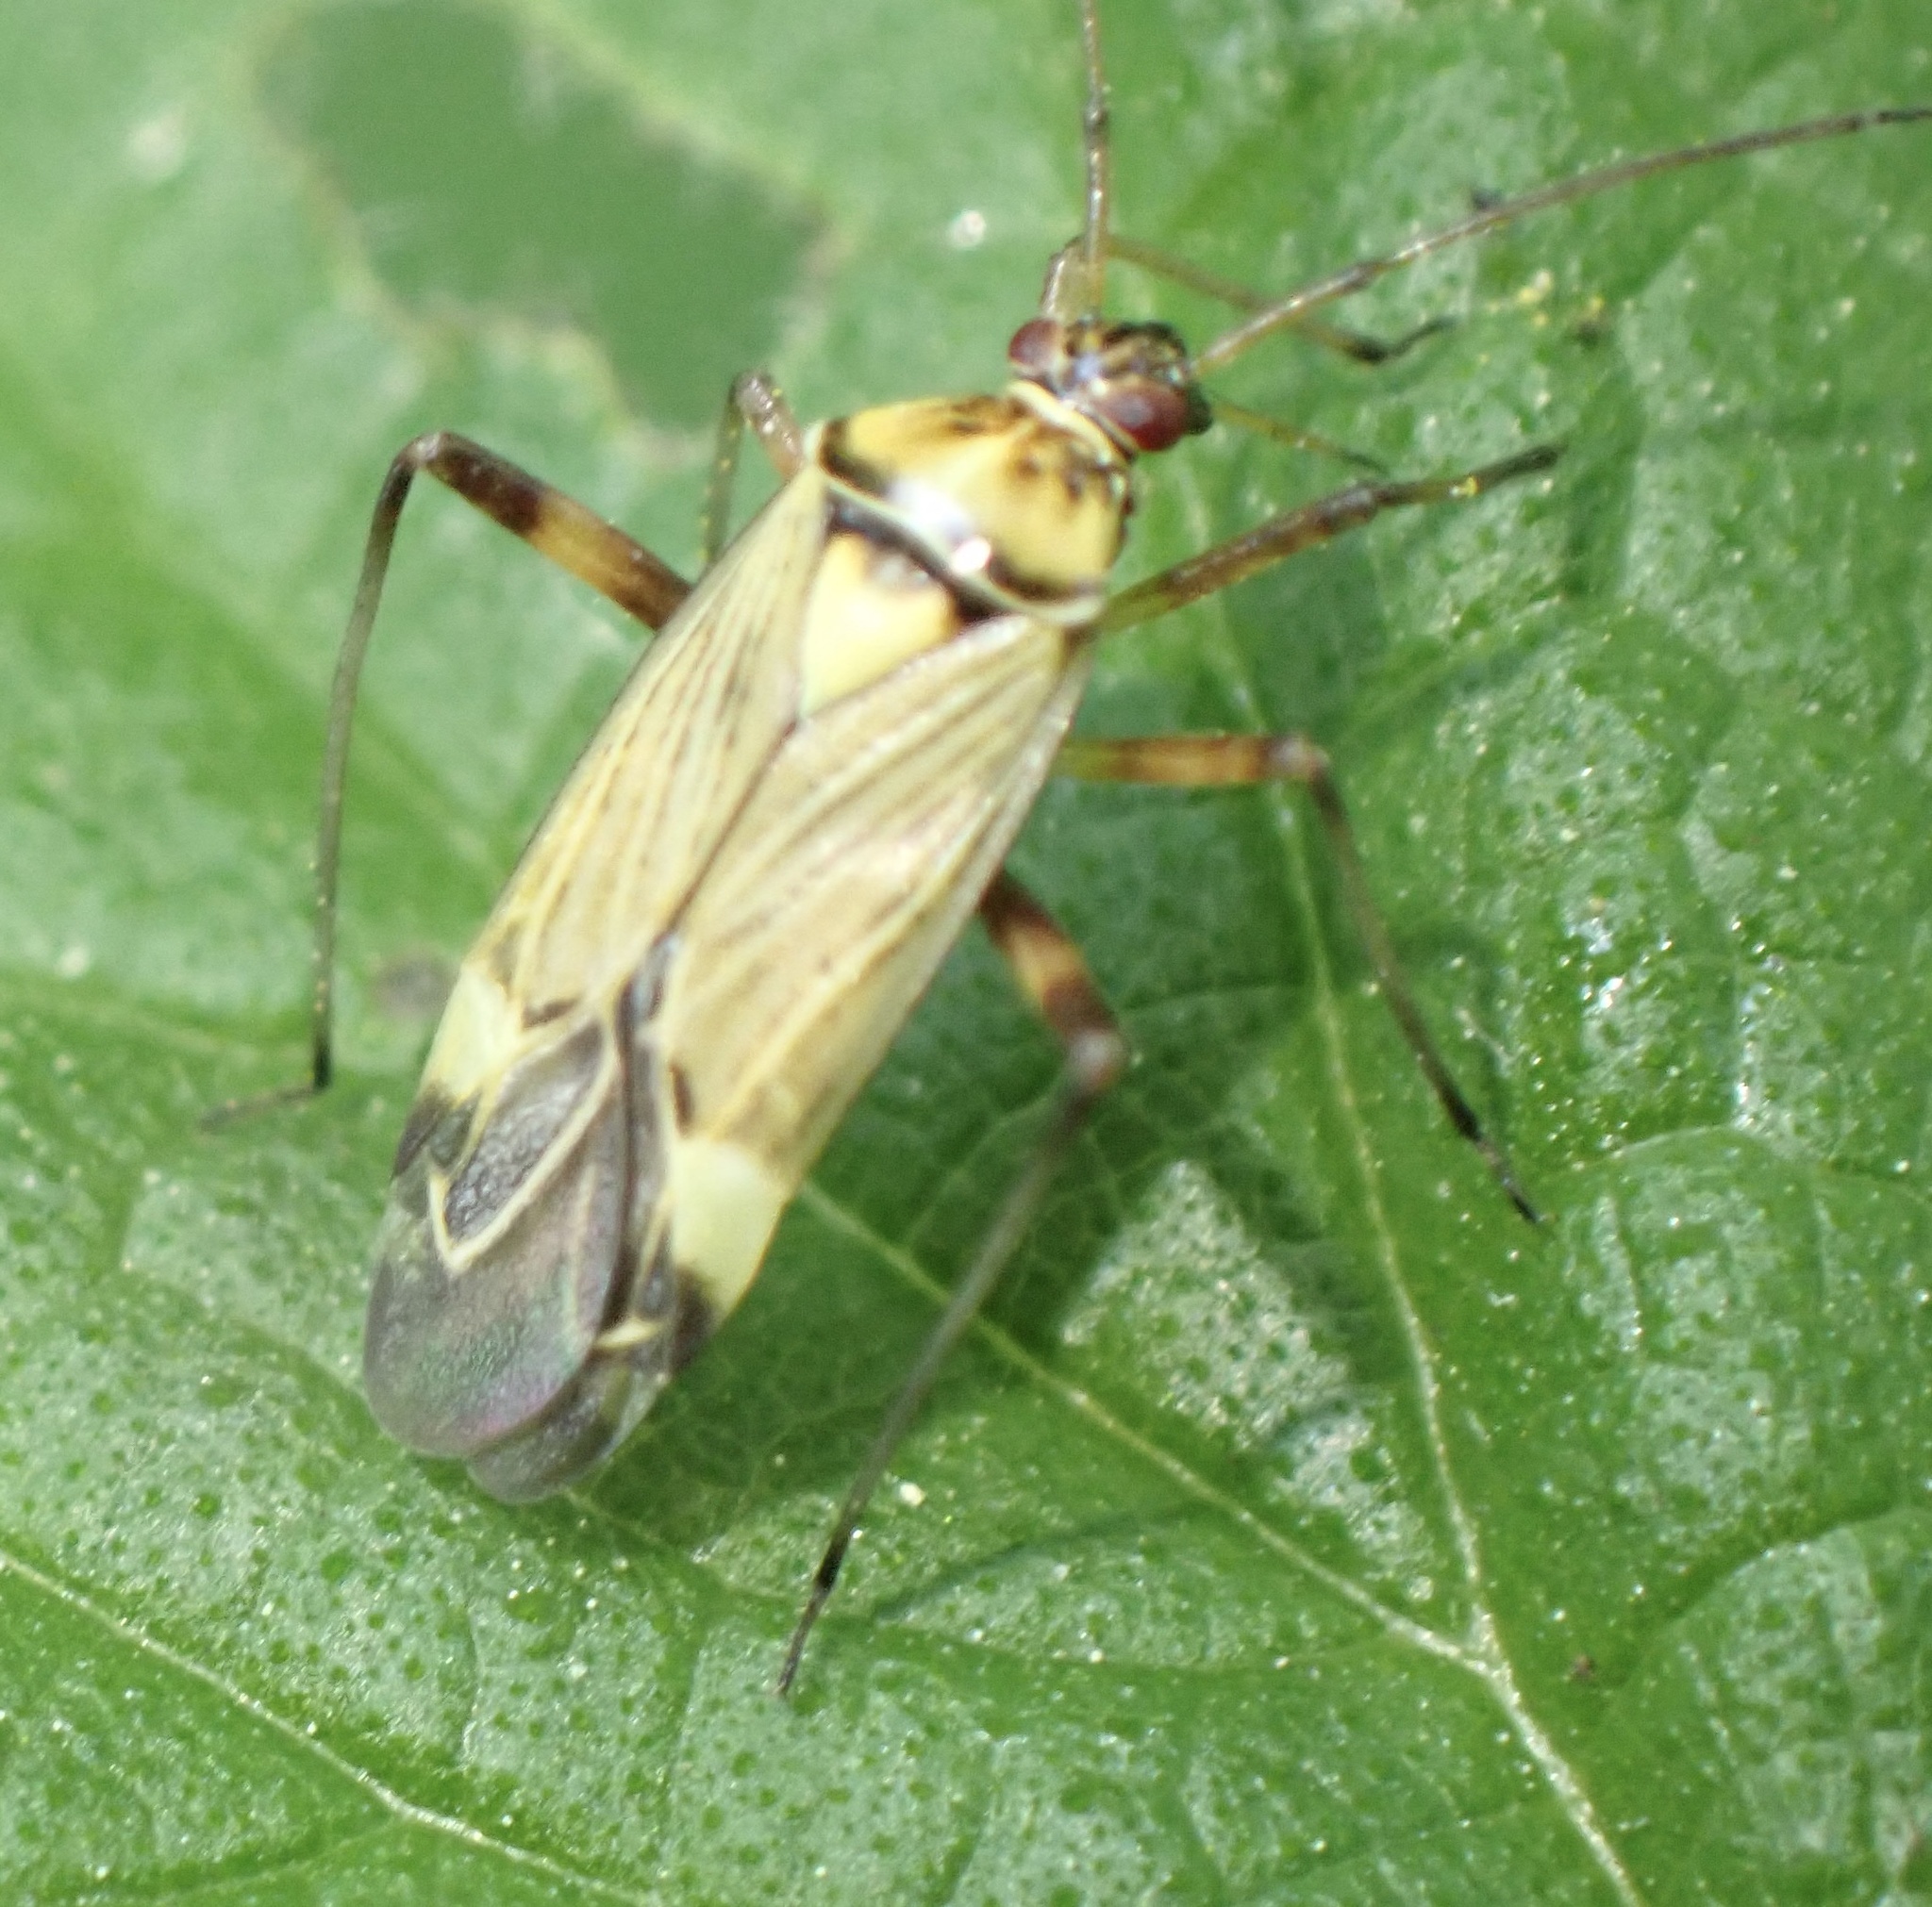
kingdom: Animalia
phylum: Arthropoda
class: Insecta
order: Hemiptera
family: Miridae
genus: Rhabdomiris
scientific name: Rhabdomiris striatellus
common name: Plant bug
